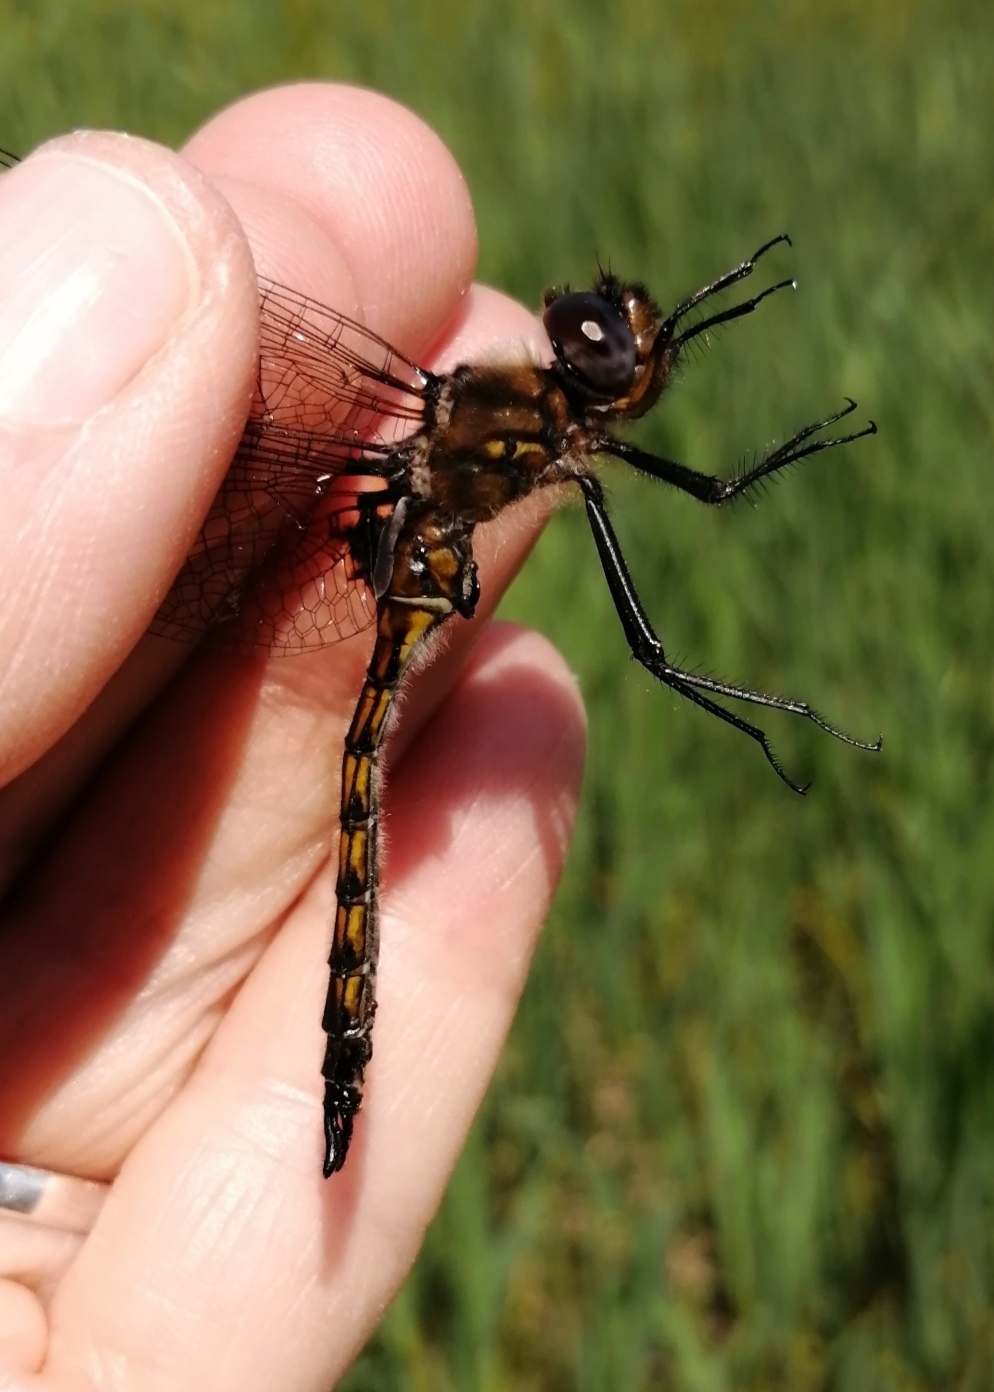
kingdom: Animalia
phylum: Arthropoda
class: Insecta
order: Odonata
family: Corduliidae
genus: Epitheca
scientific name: Epitheca spinigera
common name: Spiny baskettail
